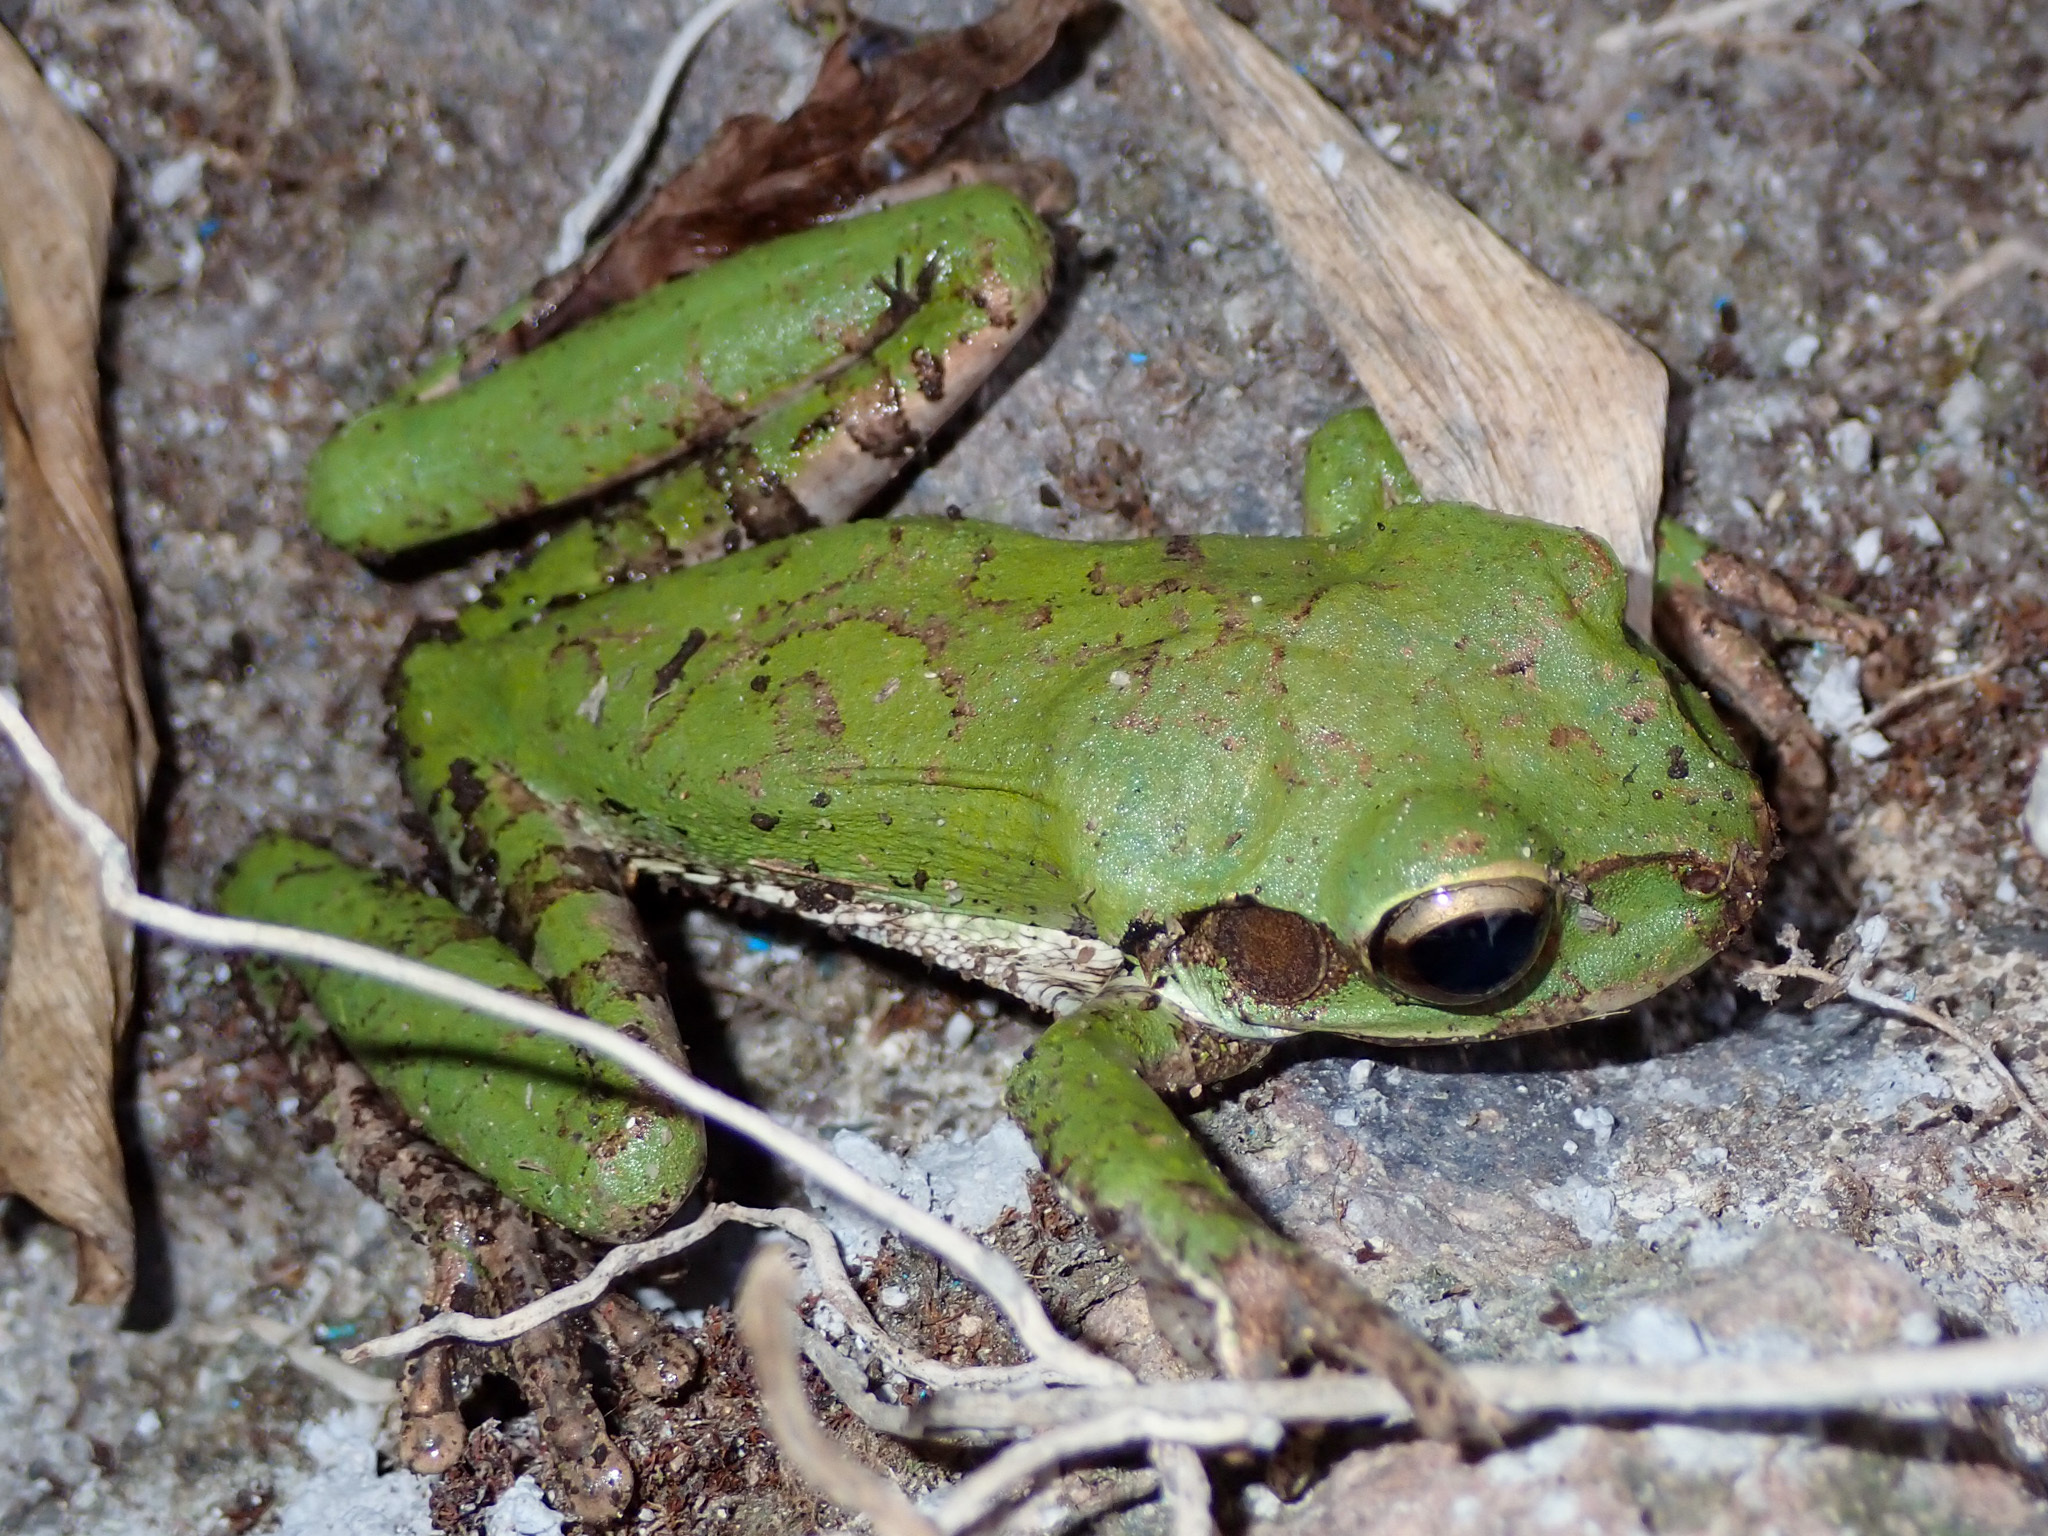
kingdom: Animalia
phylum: Chordata
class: Amphibia
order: Anura
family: Hylidae
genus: Smilisca
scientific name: Smilisca baudinii
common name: Mexican smilisca
